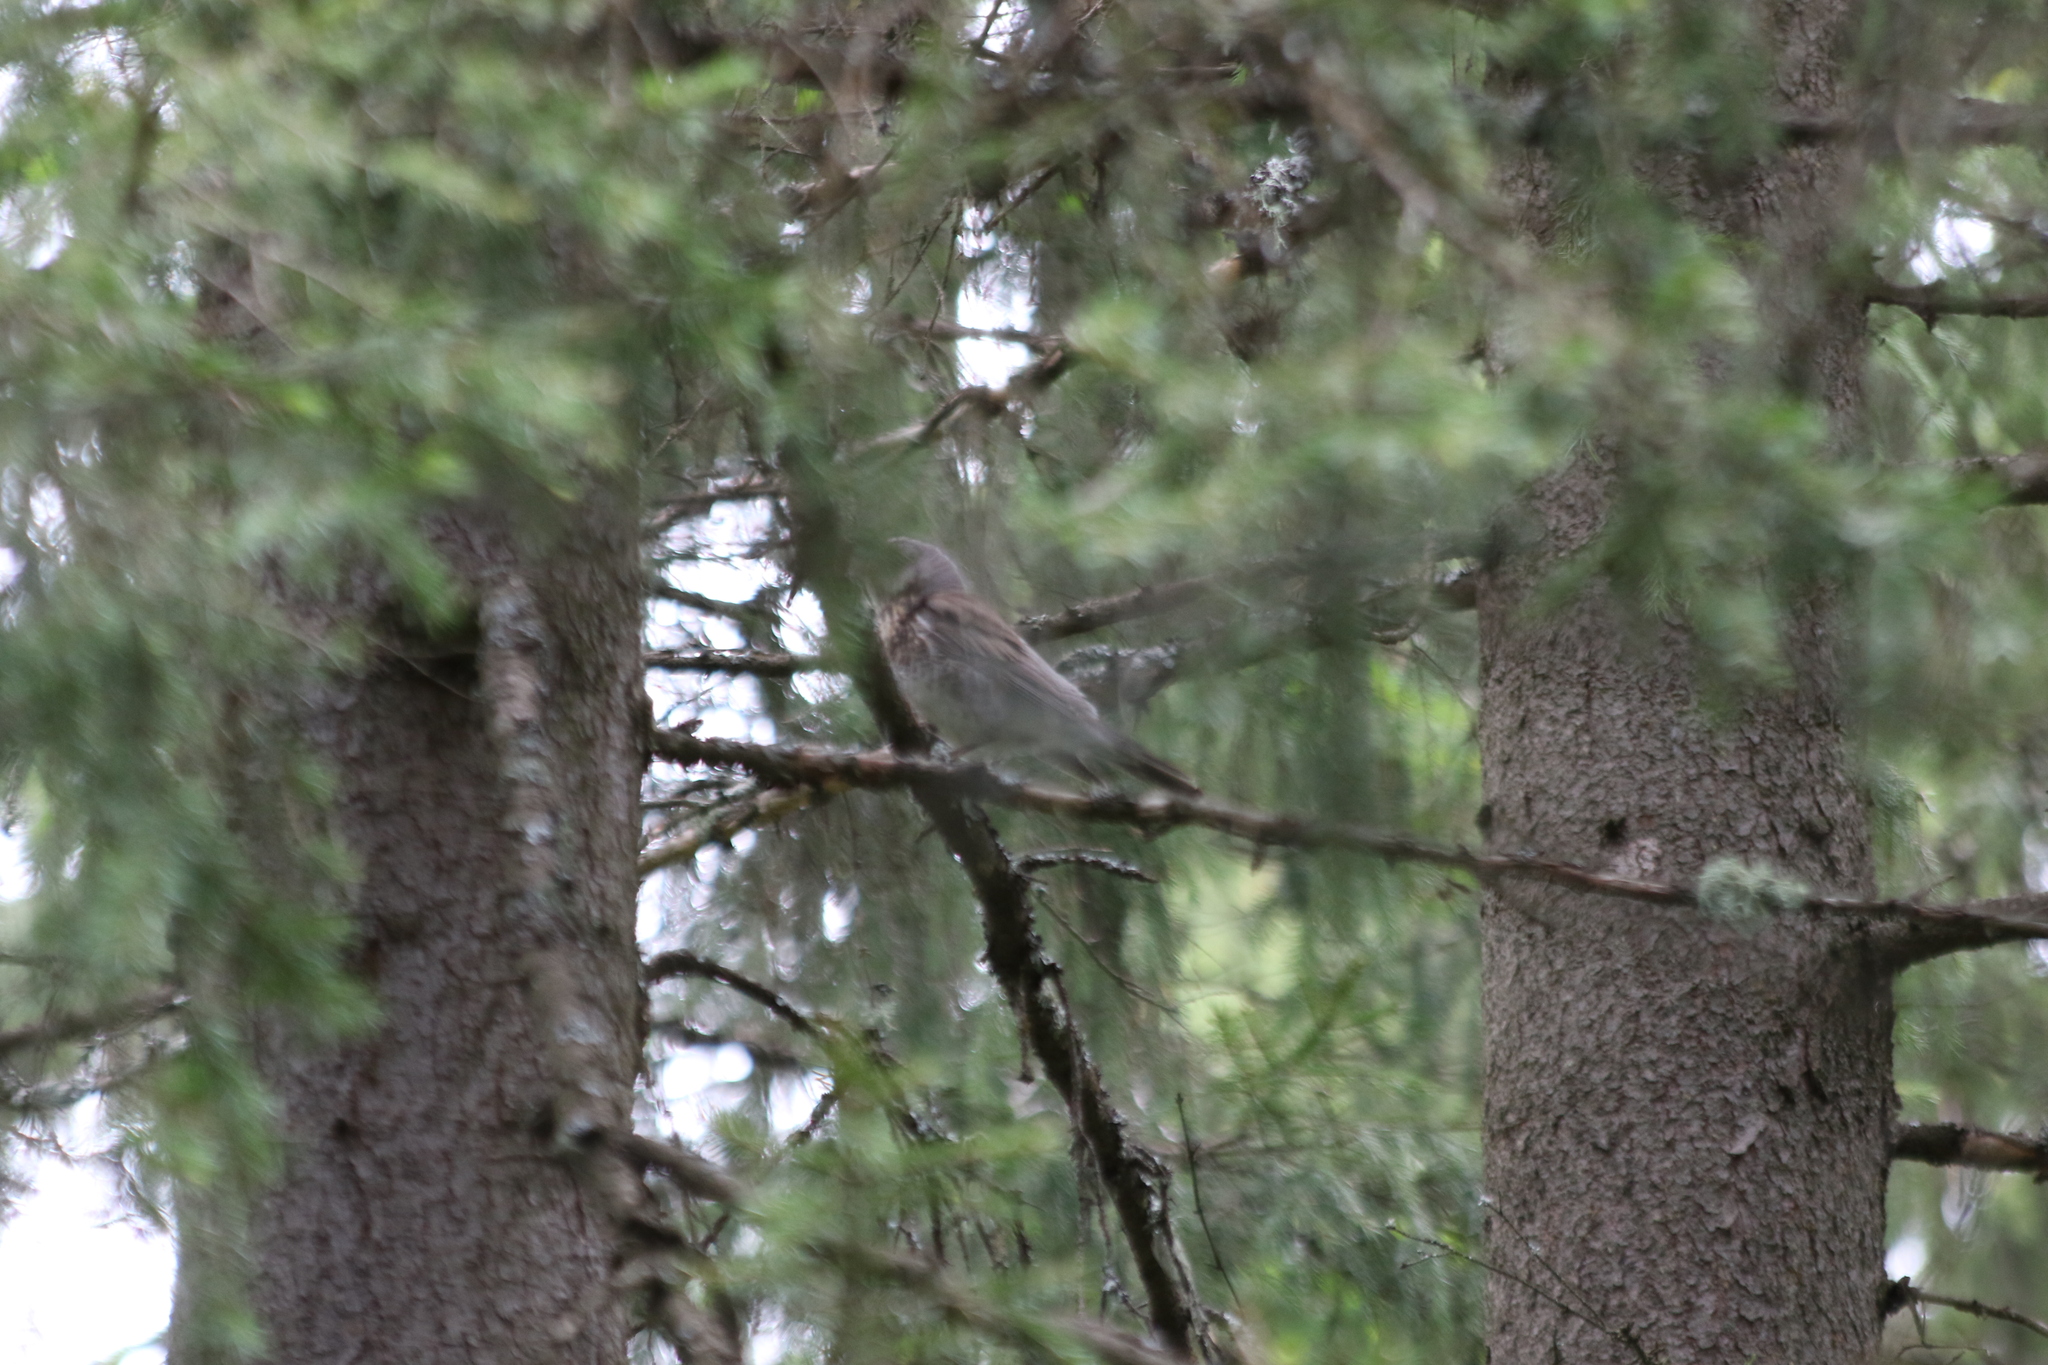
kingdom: Animalia
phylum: Chordata
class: Aves
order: Passeriformes
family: Turdidae
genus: Turdus
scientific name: Turdus pilaris
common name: Fieldfare
